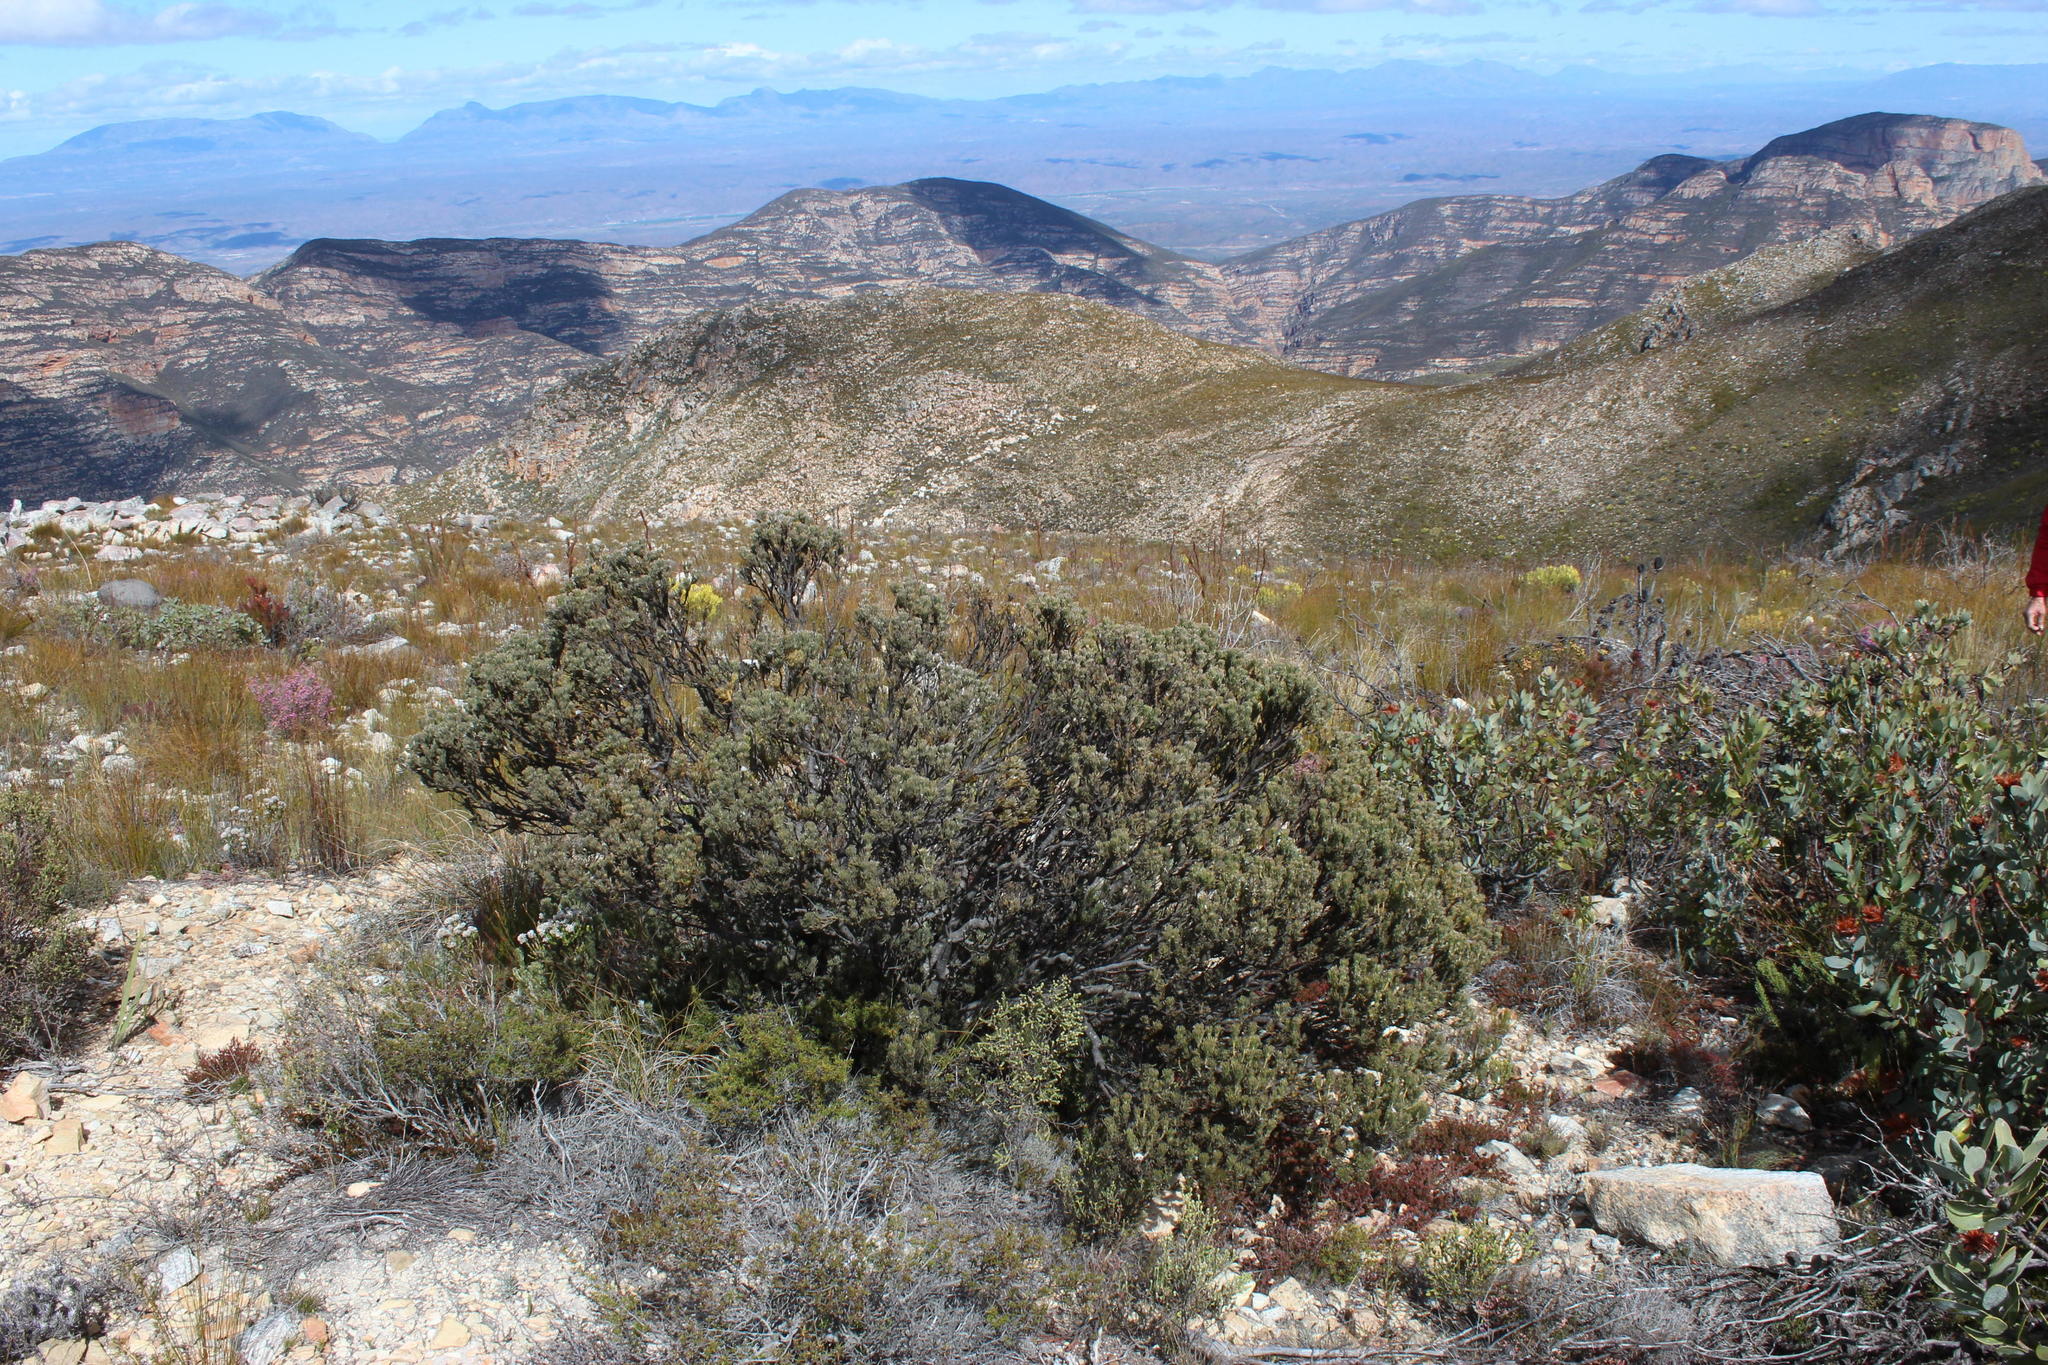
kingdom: Plantae
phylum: Tracheophyta
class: Magnoliopsida
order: Proteales
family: Proteaceae
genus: Leucadendron
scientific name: Leucadendron dregei
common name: Summit conebush
